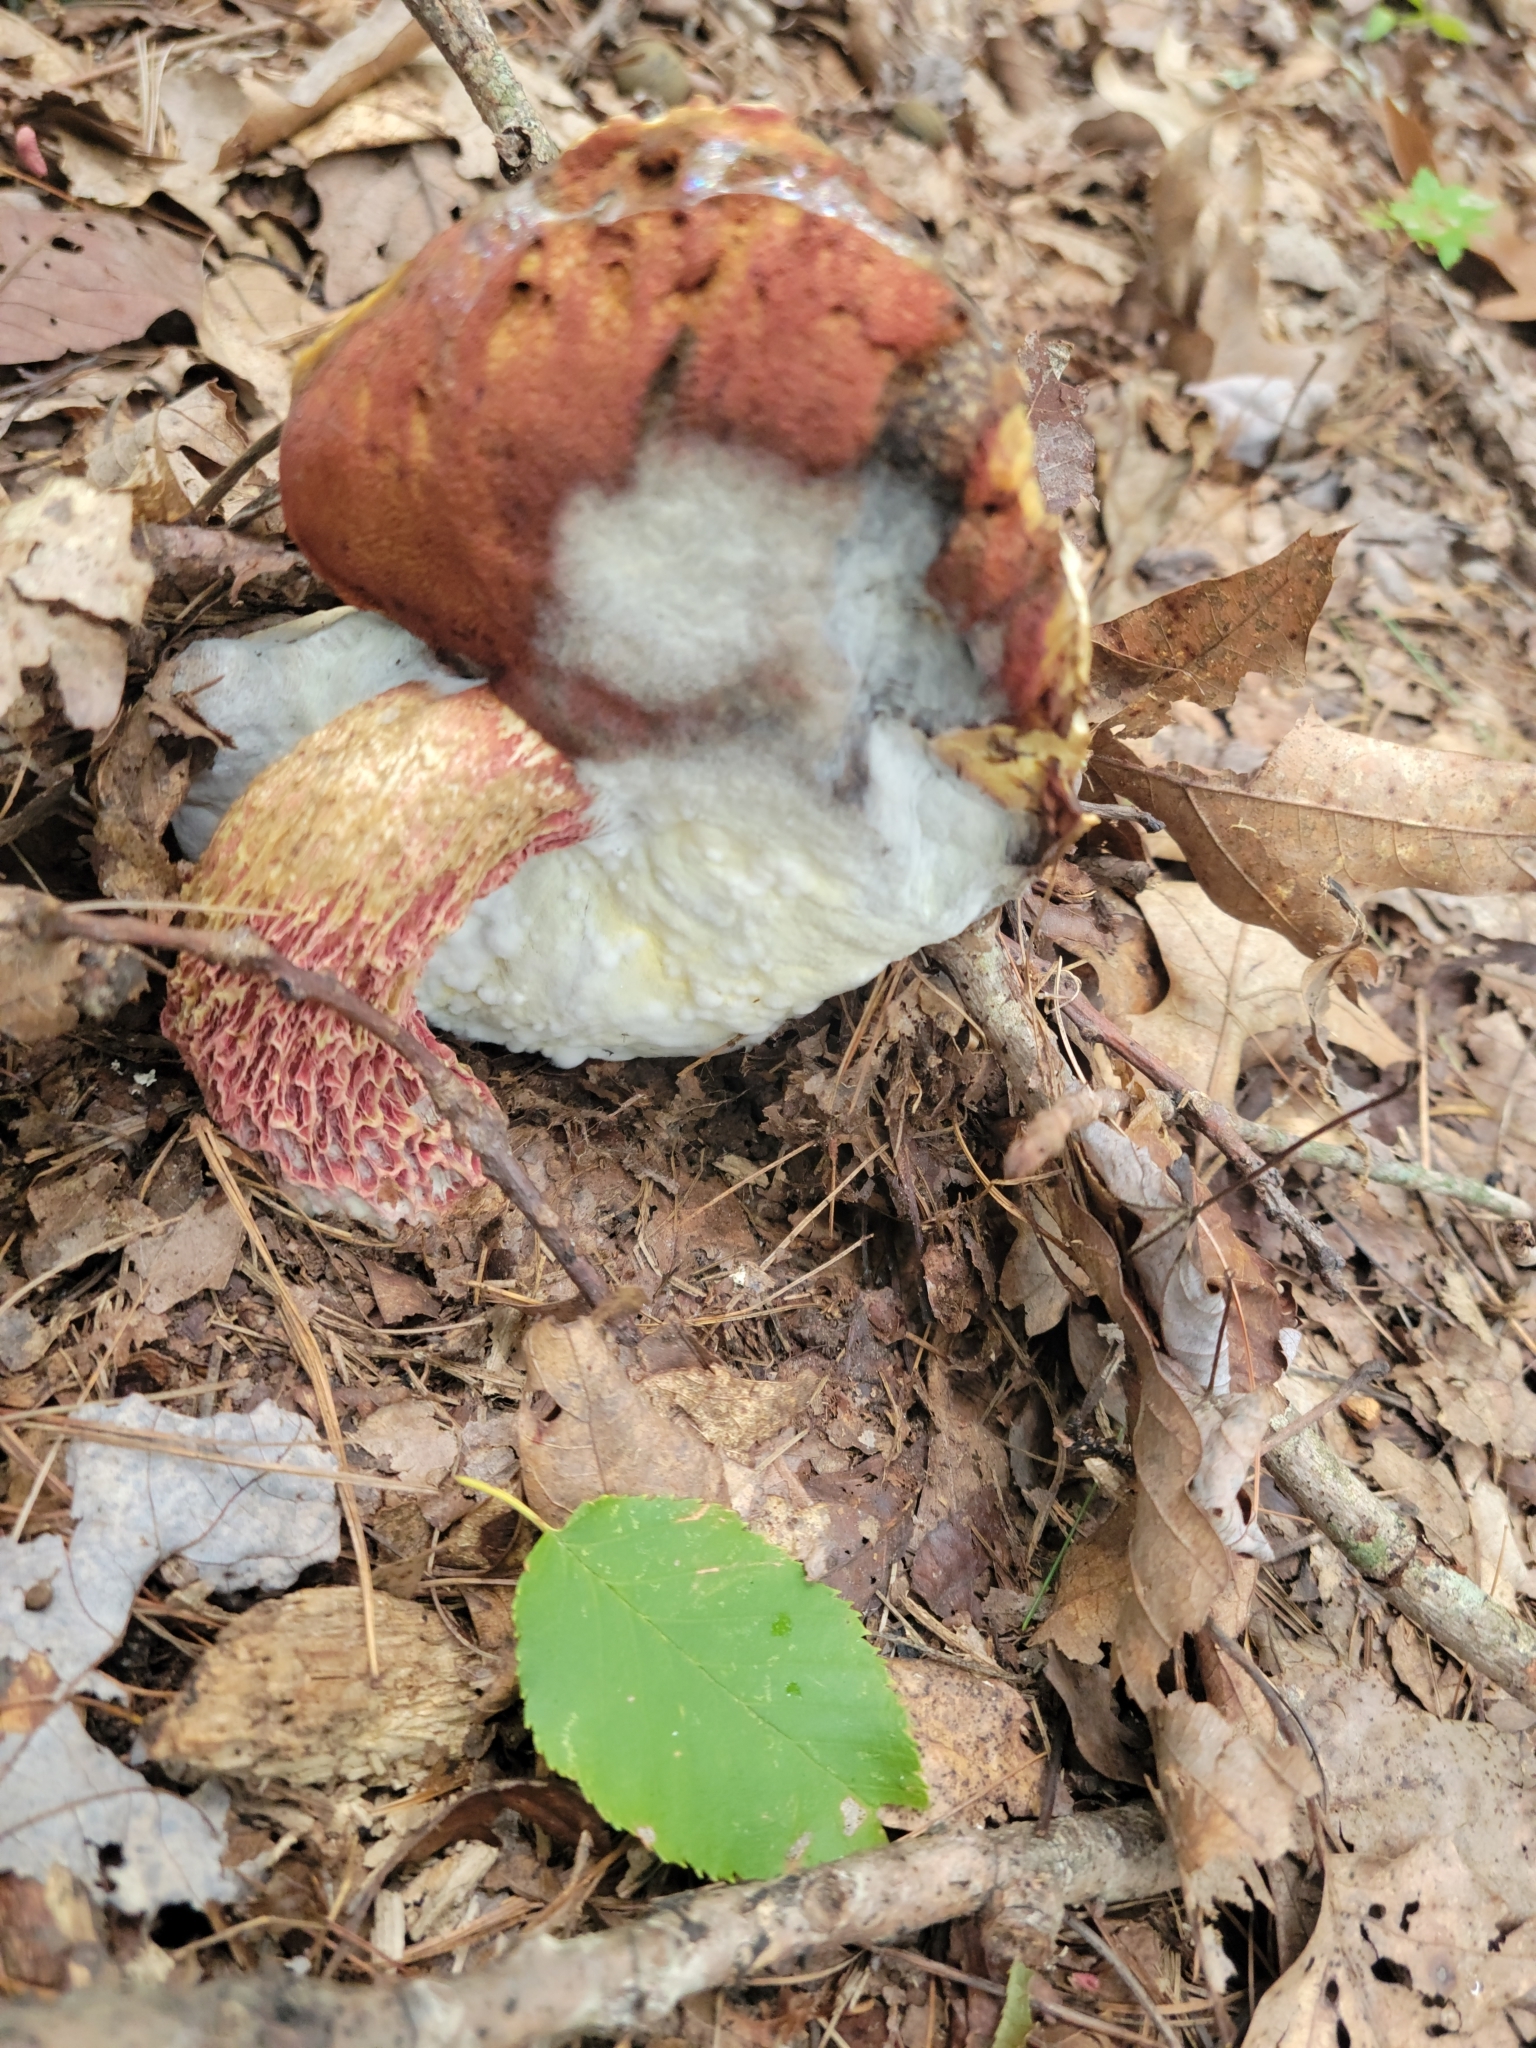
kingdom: Fungi
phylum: Basidiomycota
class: Agaricomycetes
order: Boletales
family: Boletaceae
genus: Butyriboletus
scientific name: Butyriboletus frostii
